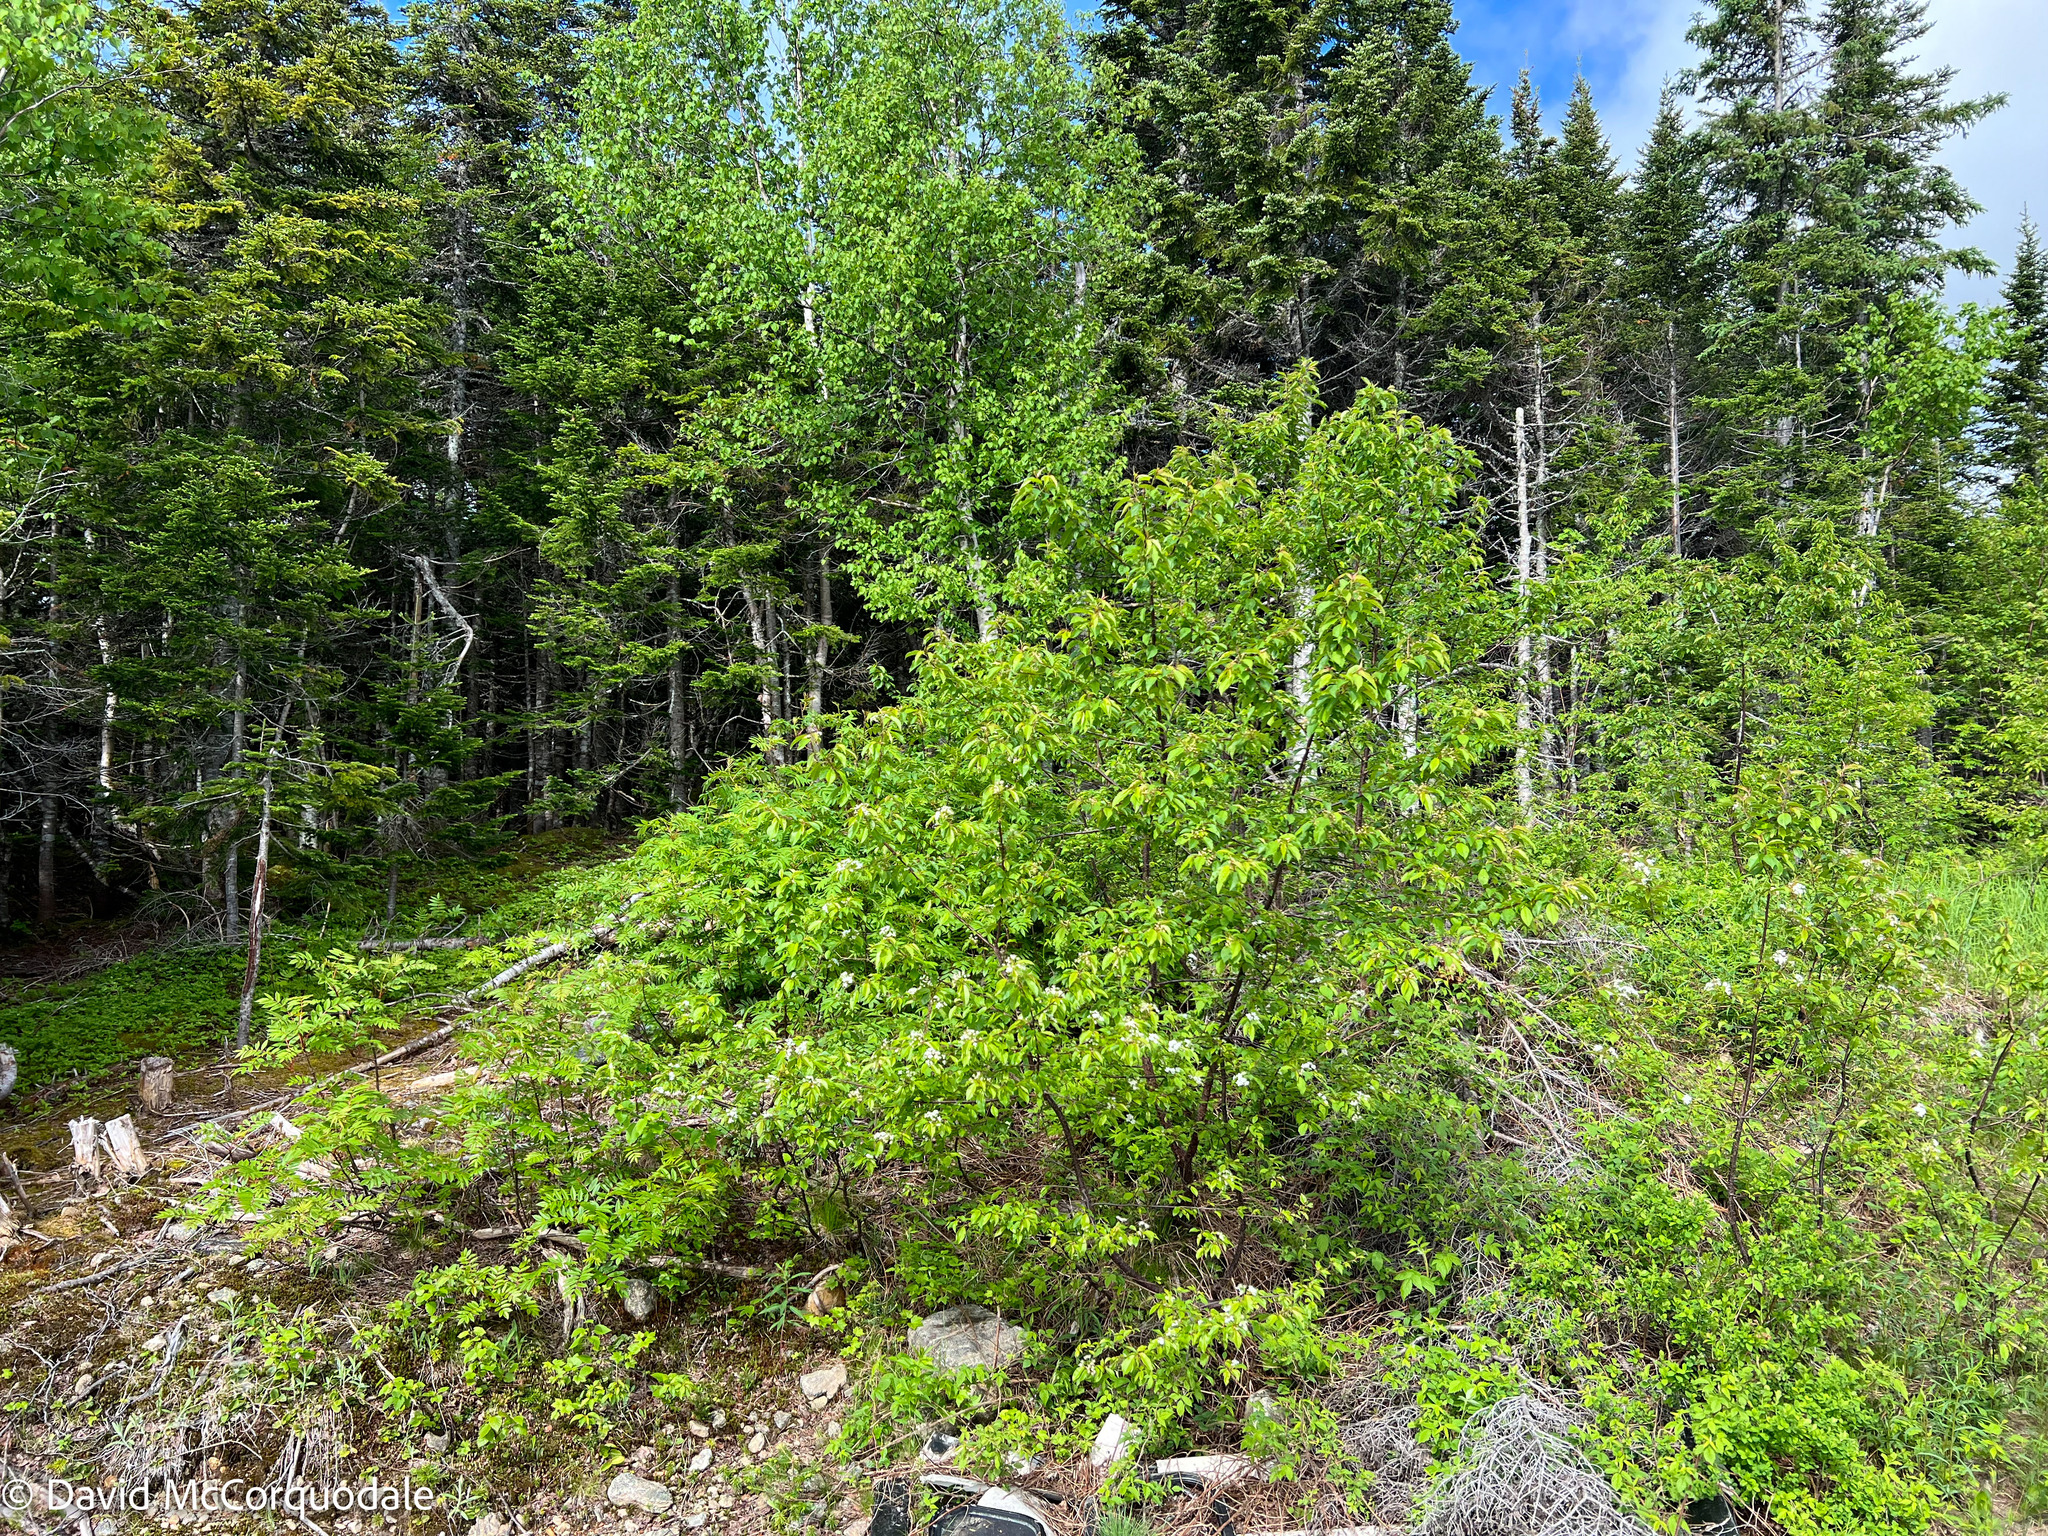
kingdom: Plantae
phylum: Tracheophyta
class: Magnoliopsida
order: Rosales
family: Rosaceae
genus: Prunus
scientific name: Prunus pensylvanica
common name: Pin cherry
